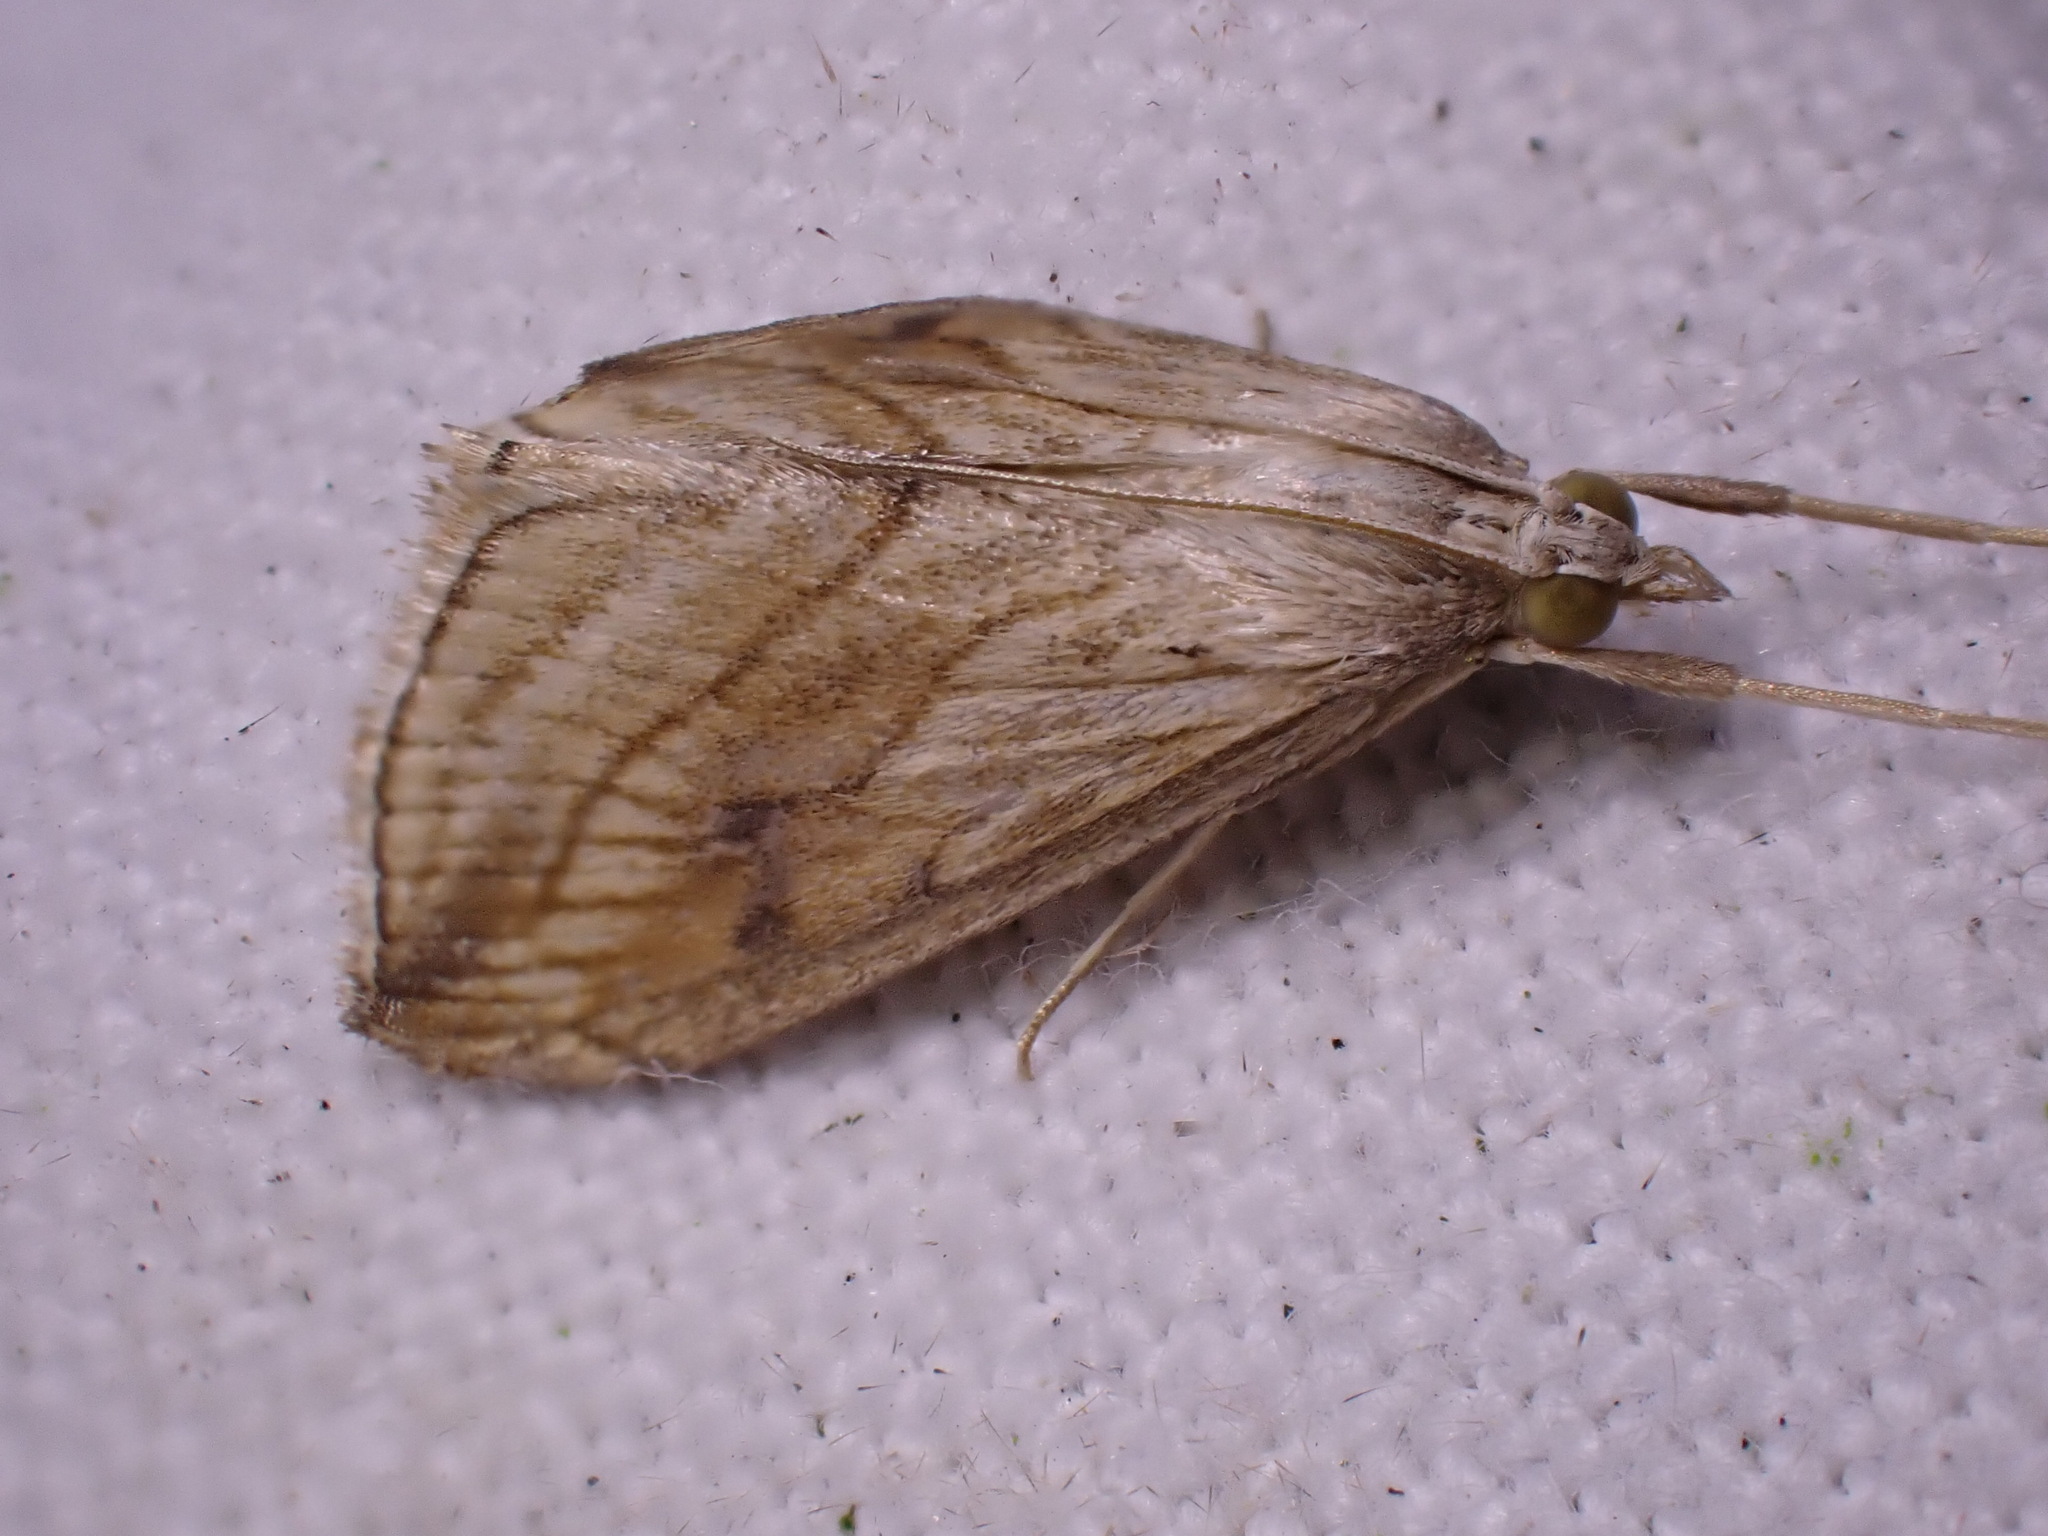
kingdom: Animalia
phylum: Arthropoda
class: Insecta
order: Lepidoptera
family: Crambidae
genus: Evergestis
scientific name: Evergestis forficalis
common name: Garden pebble
